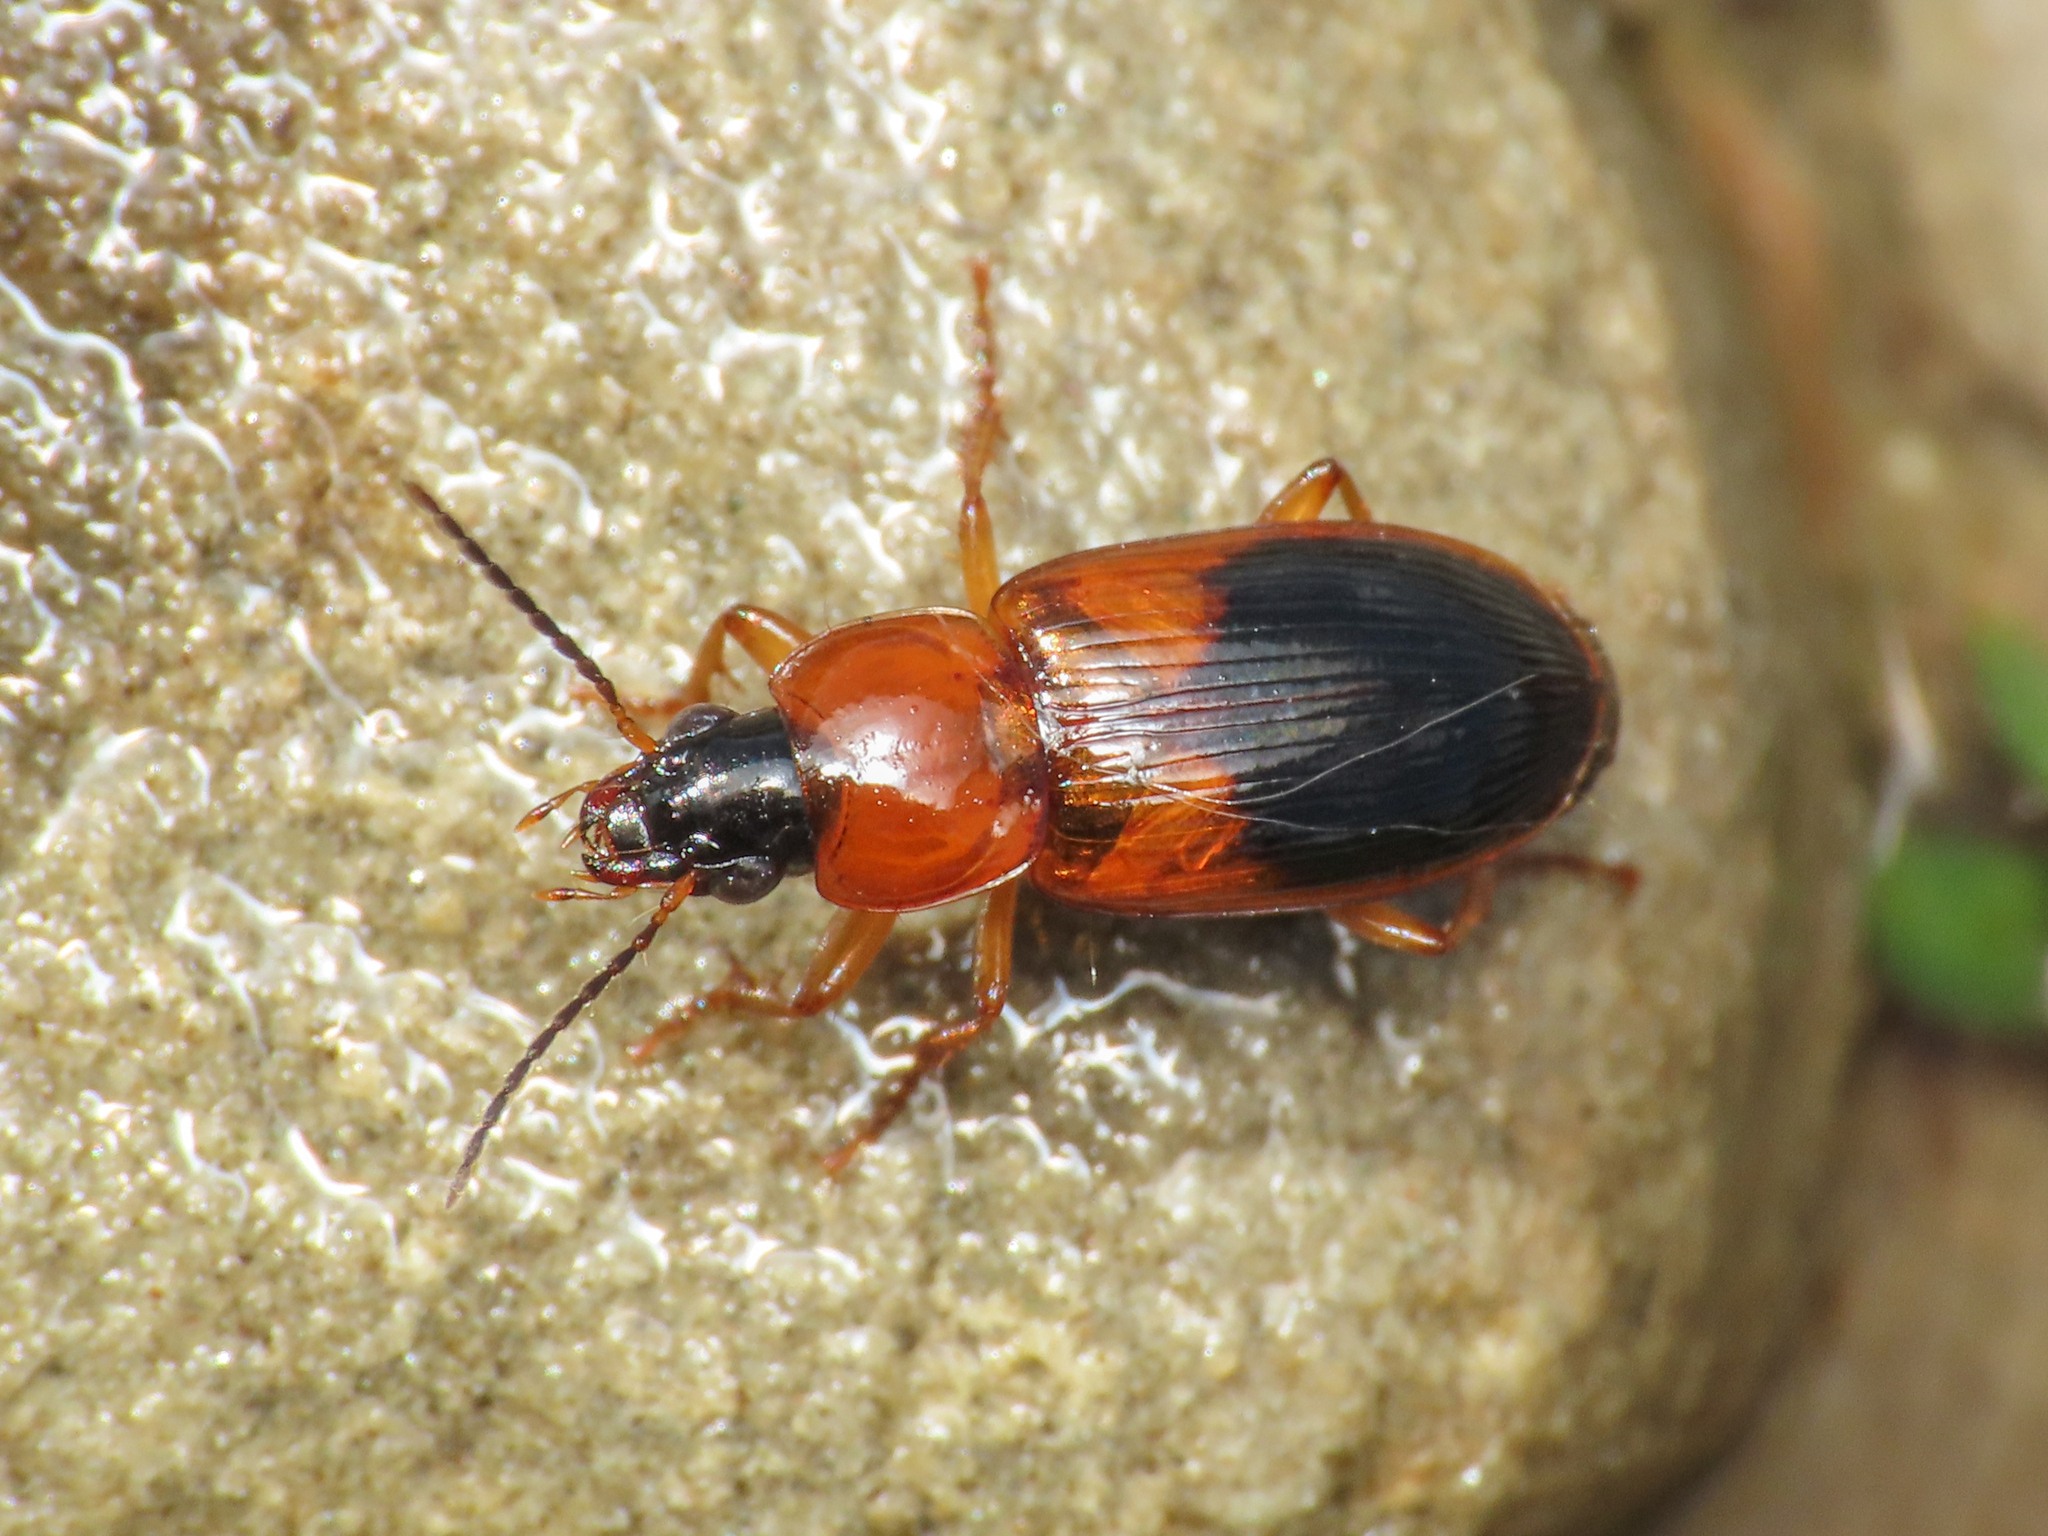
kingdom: Animalia
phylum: Arthropoda
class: Insecta
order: Coleoptera
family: Carabidae
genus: Stenolophus
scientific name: Stenolophus teutonus
